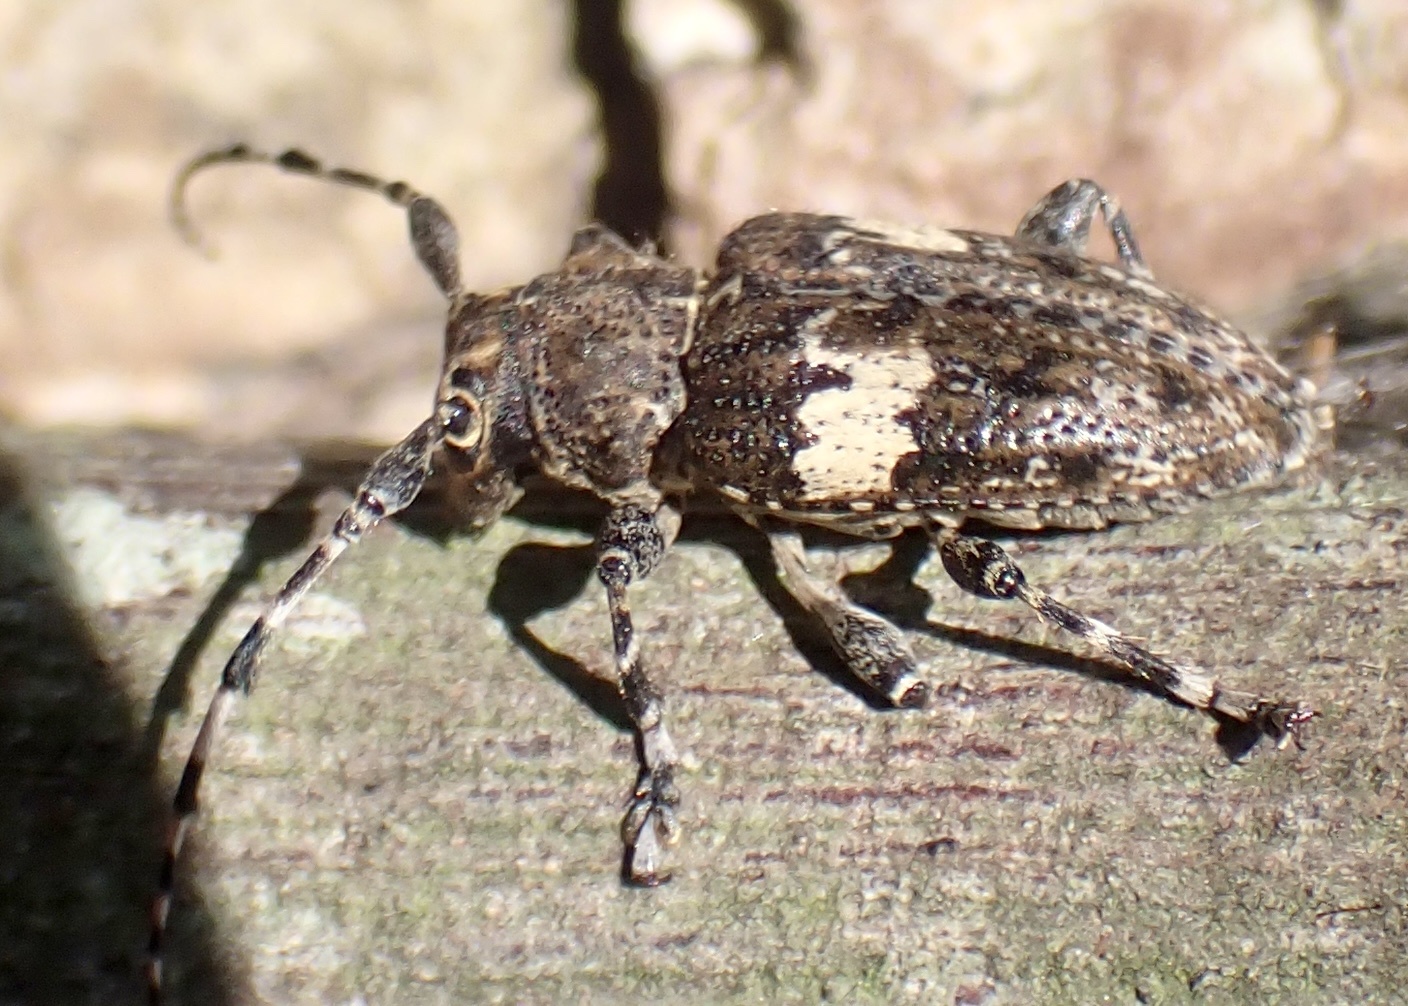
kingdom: Animalia
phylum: Arthropoda
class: Insecta
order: Coleoptera
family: Cerambycidae
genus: Acanthoderes
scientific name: Acanthoderes quadrigibba
